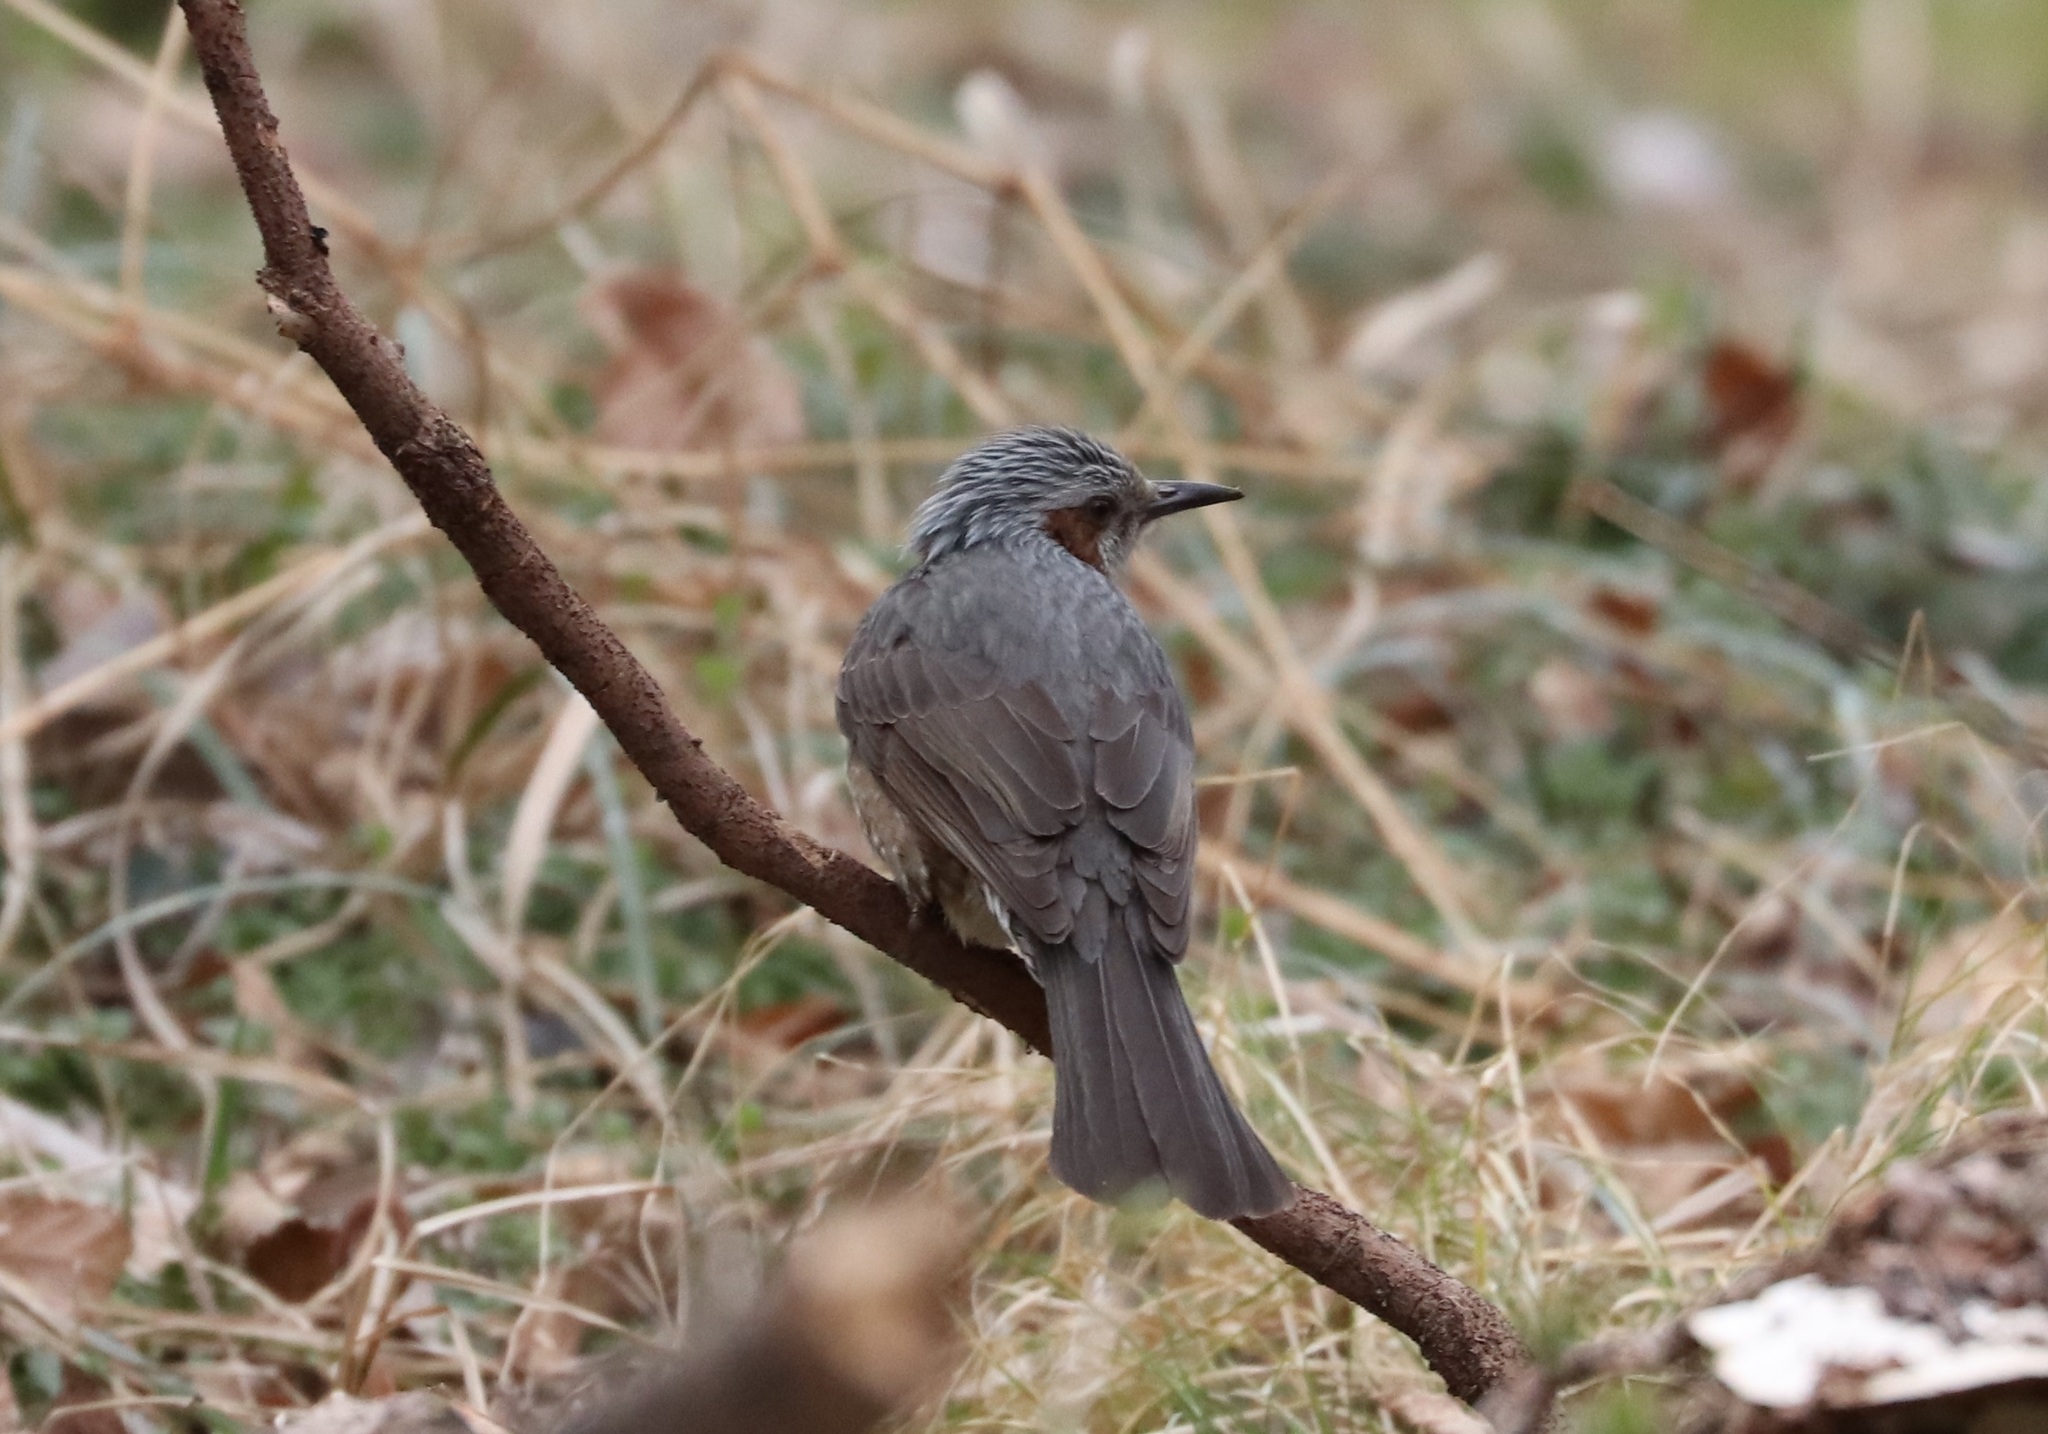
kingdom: Animalia
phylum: Chordata
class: Aves
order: Passeriformes
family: Pycnonotidae
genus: Hypsipetes
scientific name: Hypsipetes amaurotis
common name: Brown-eared bulbul
